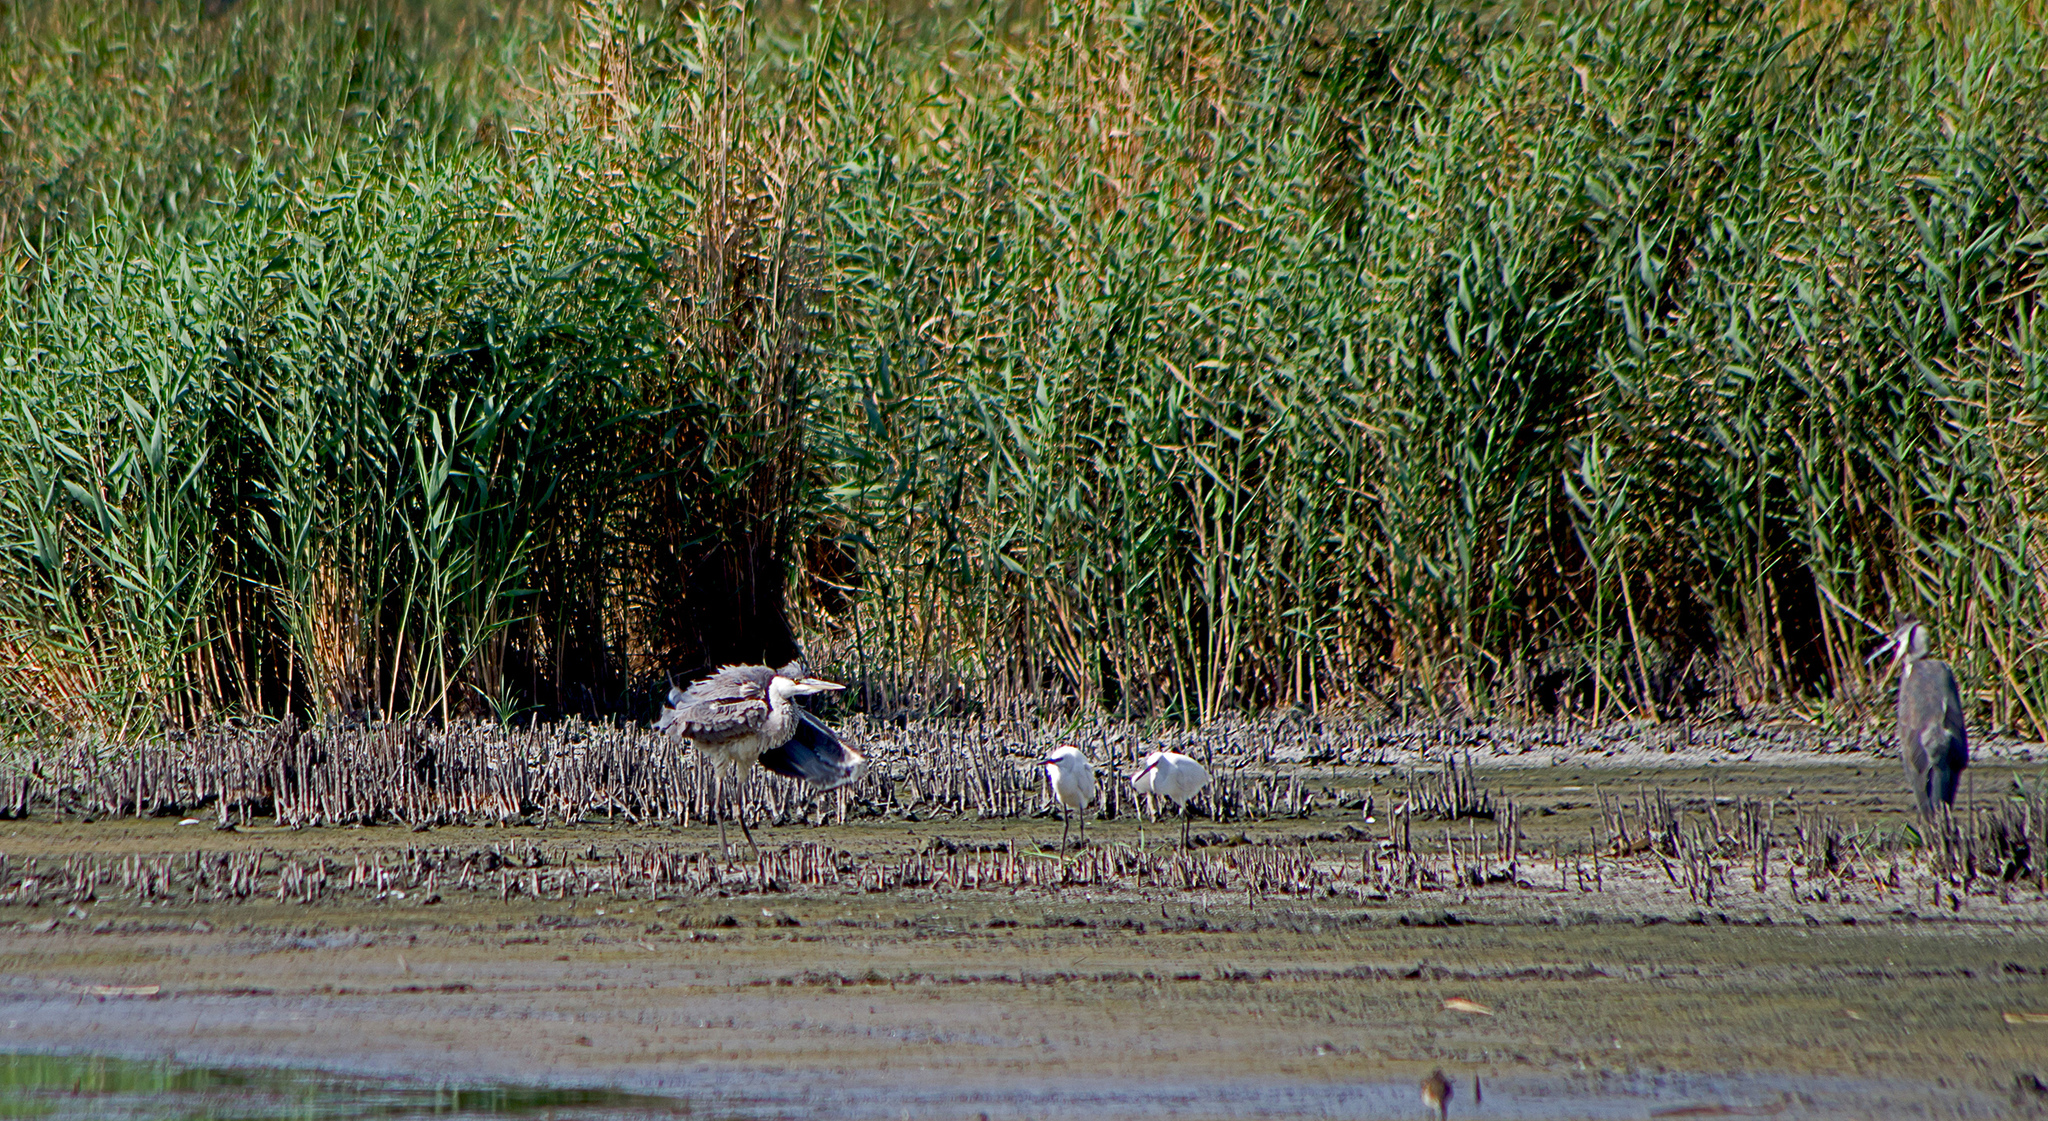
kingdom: Animalia
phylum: Chordata
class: Aves
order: Pelecaniformes
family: Ardeidae
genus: Ardea
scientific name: Ardea cinerea
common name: Grey heron
